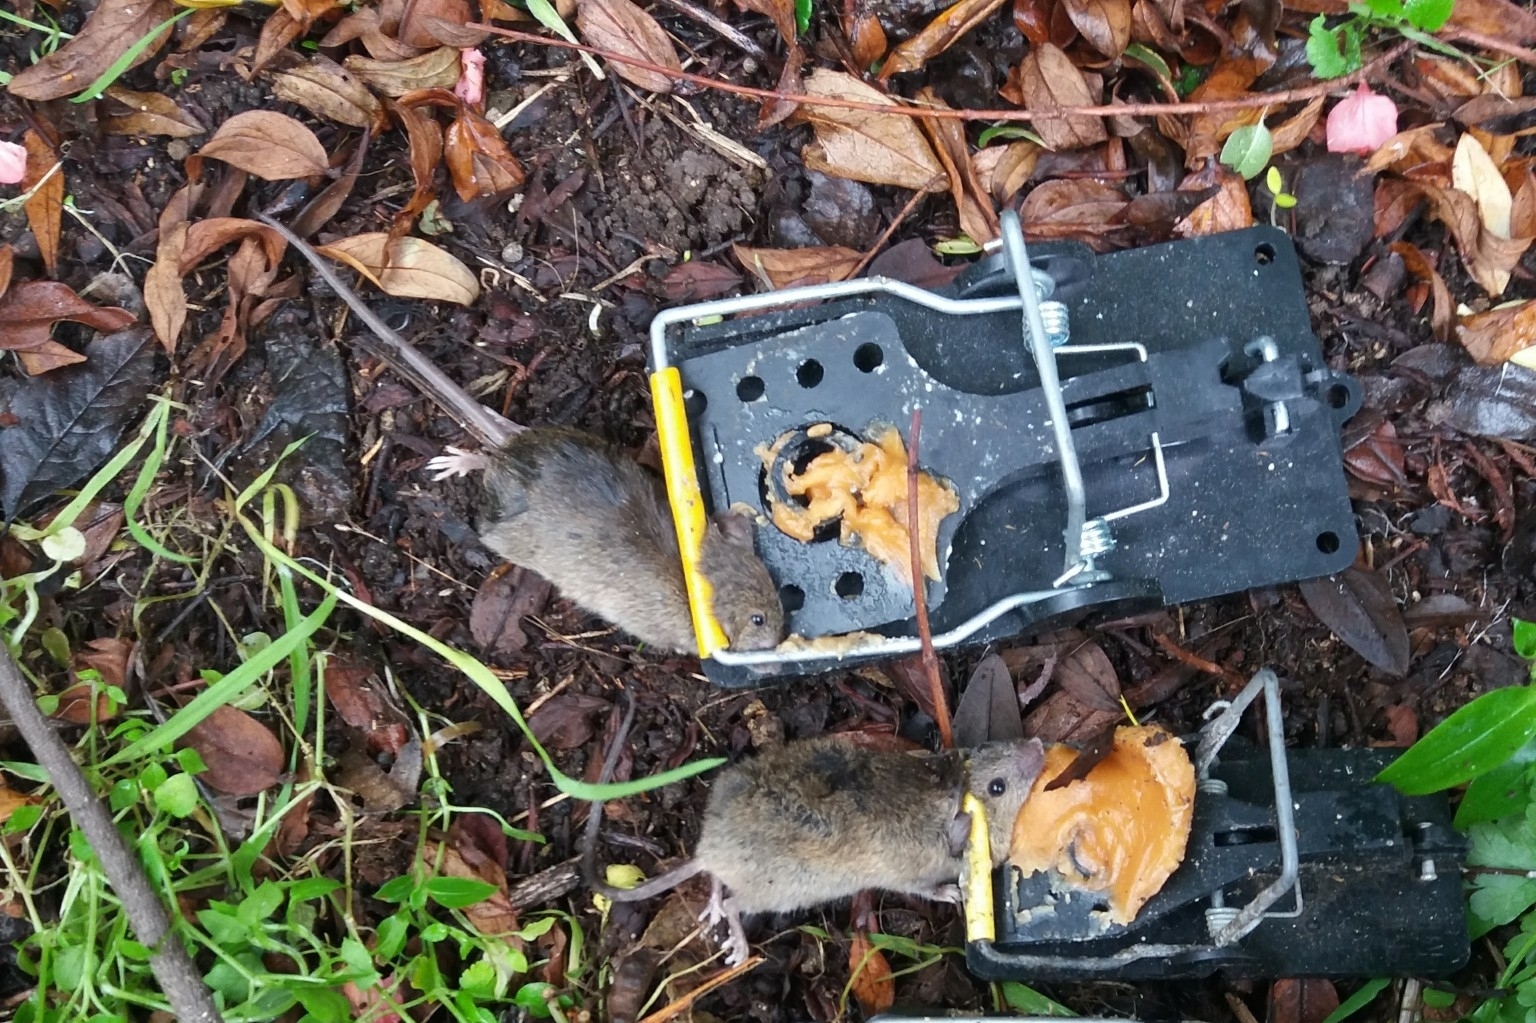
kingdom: Animalia
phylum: Chordata
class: Mammalia
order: Rodentia
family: Muridae
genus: Mus
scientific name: Mus musculus
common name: House mouse
